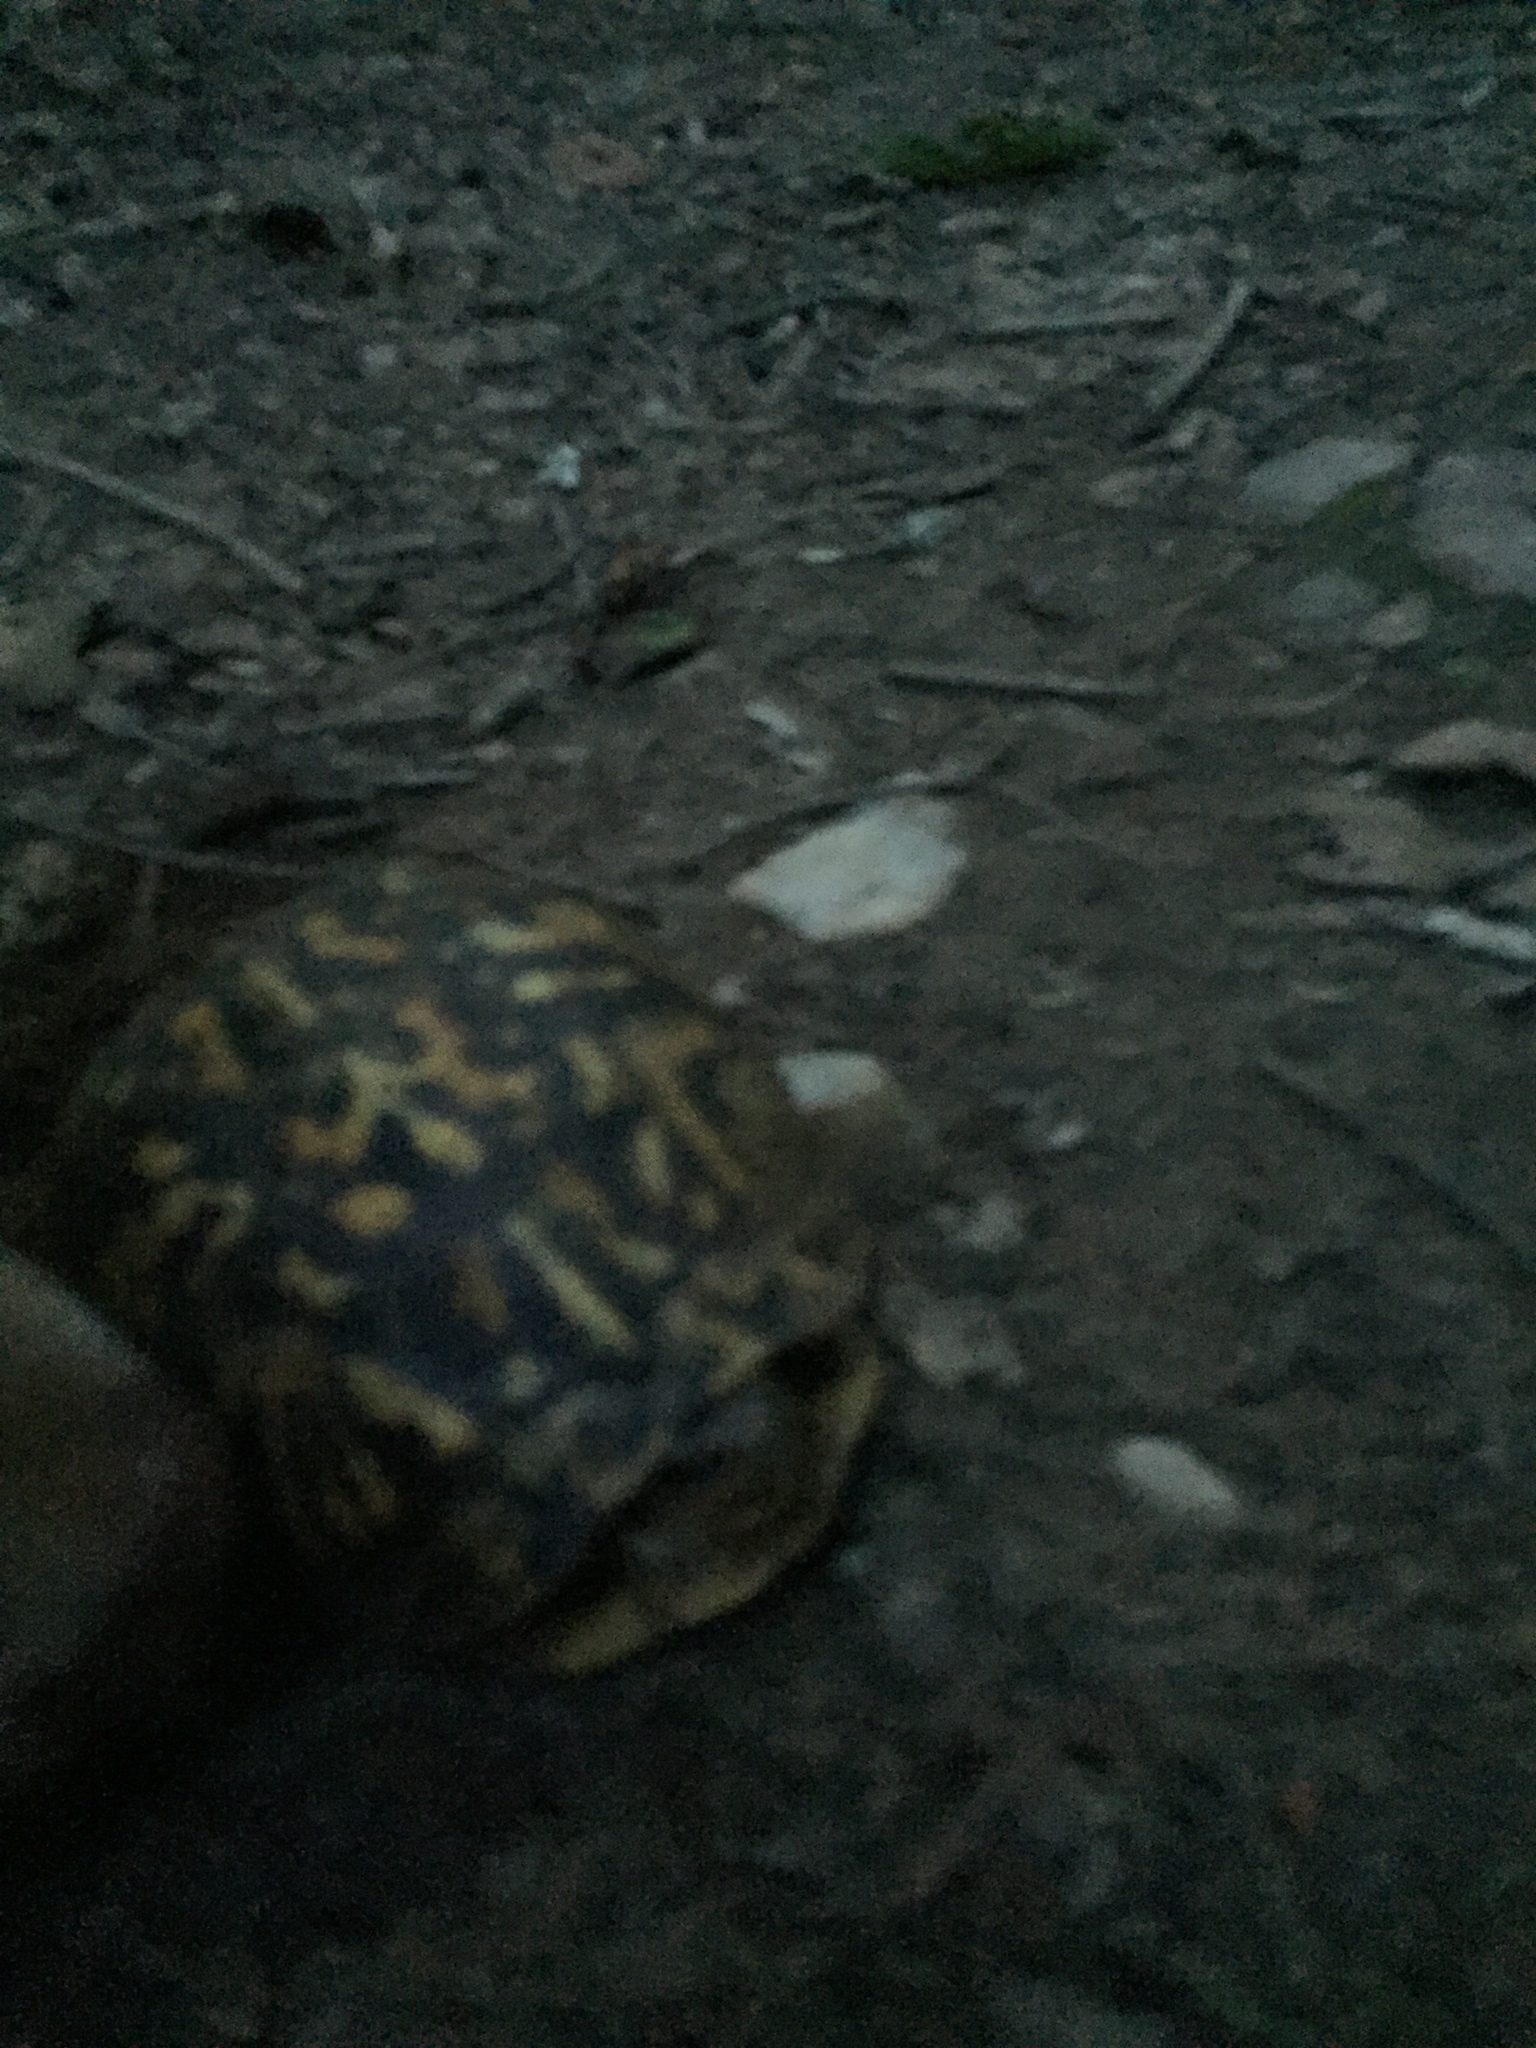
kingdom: Animalia
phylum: Chordata
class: Testudines
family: Emydidae
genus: Terrapene
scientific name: Terrapene carolina
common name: Common box turtle
